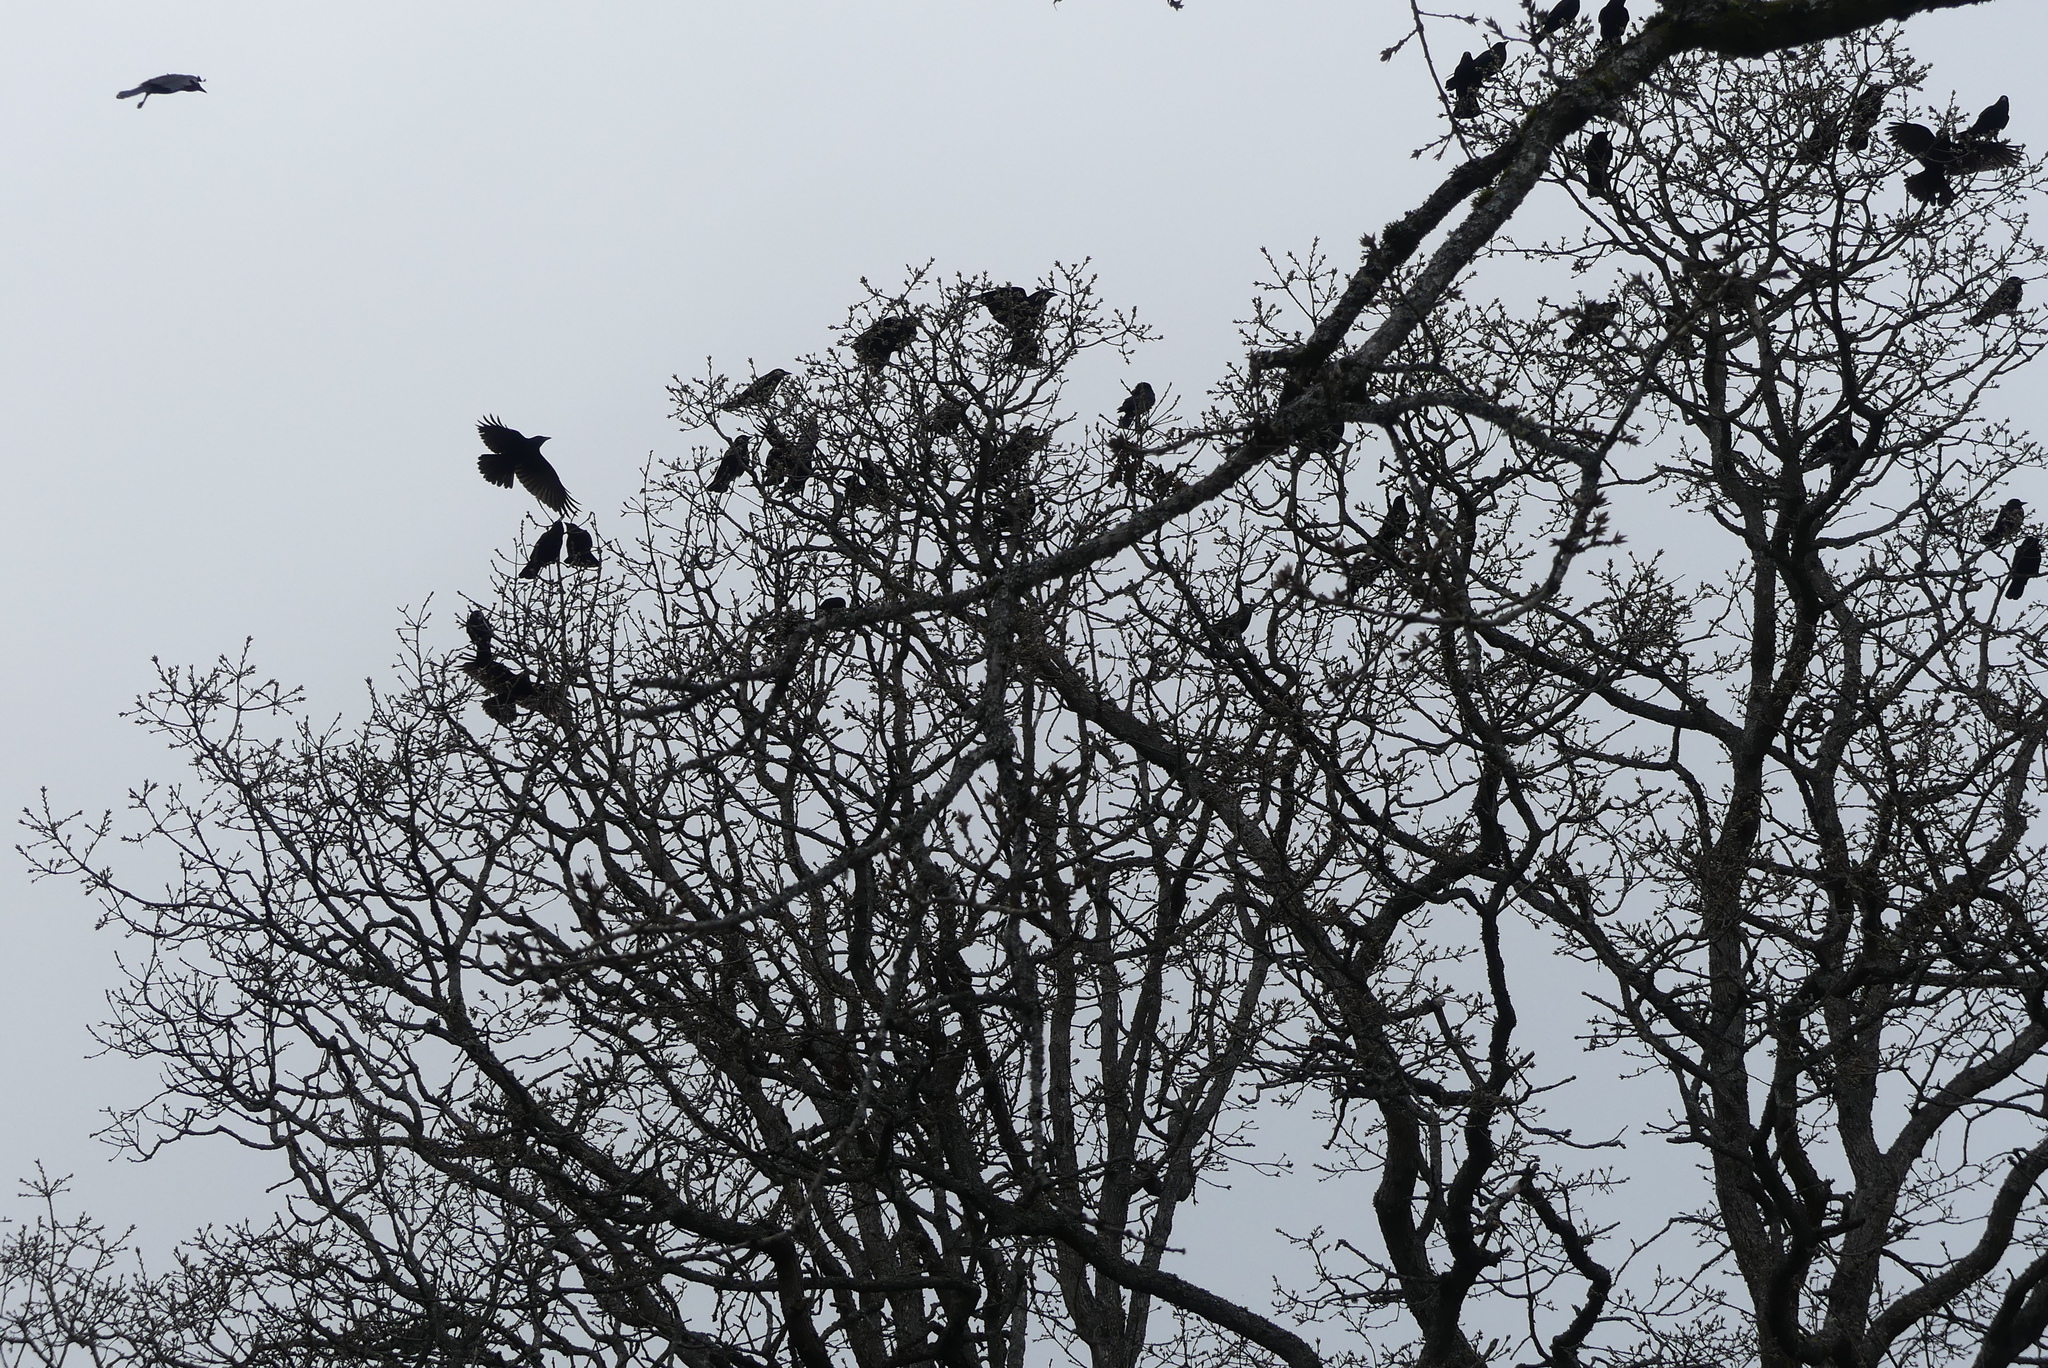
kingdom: Animalia
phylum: Chordata
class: Aves
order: Passeriformes
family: Corvidae
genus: Corvus
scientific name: Corvus brachyrhynchos
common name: American crow
